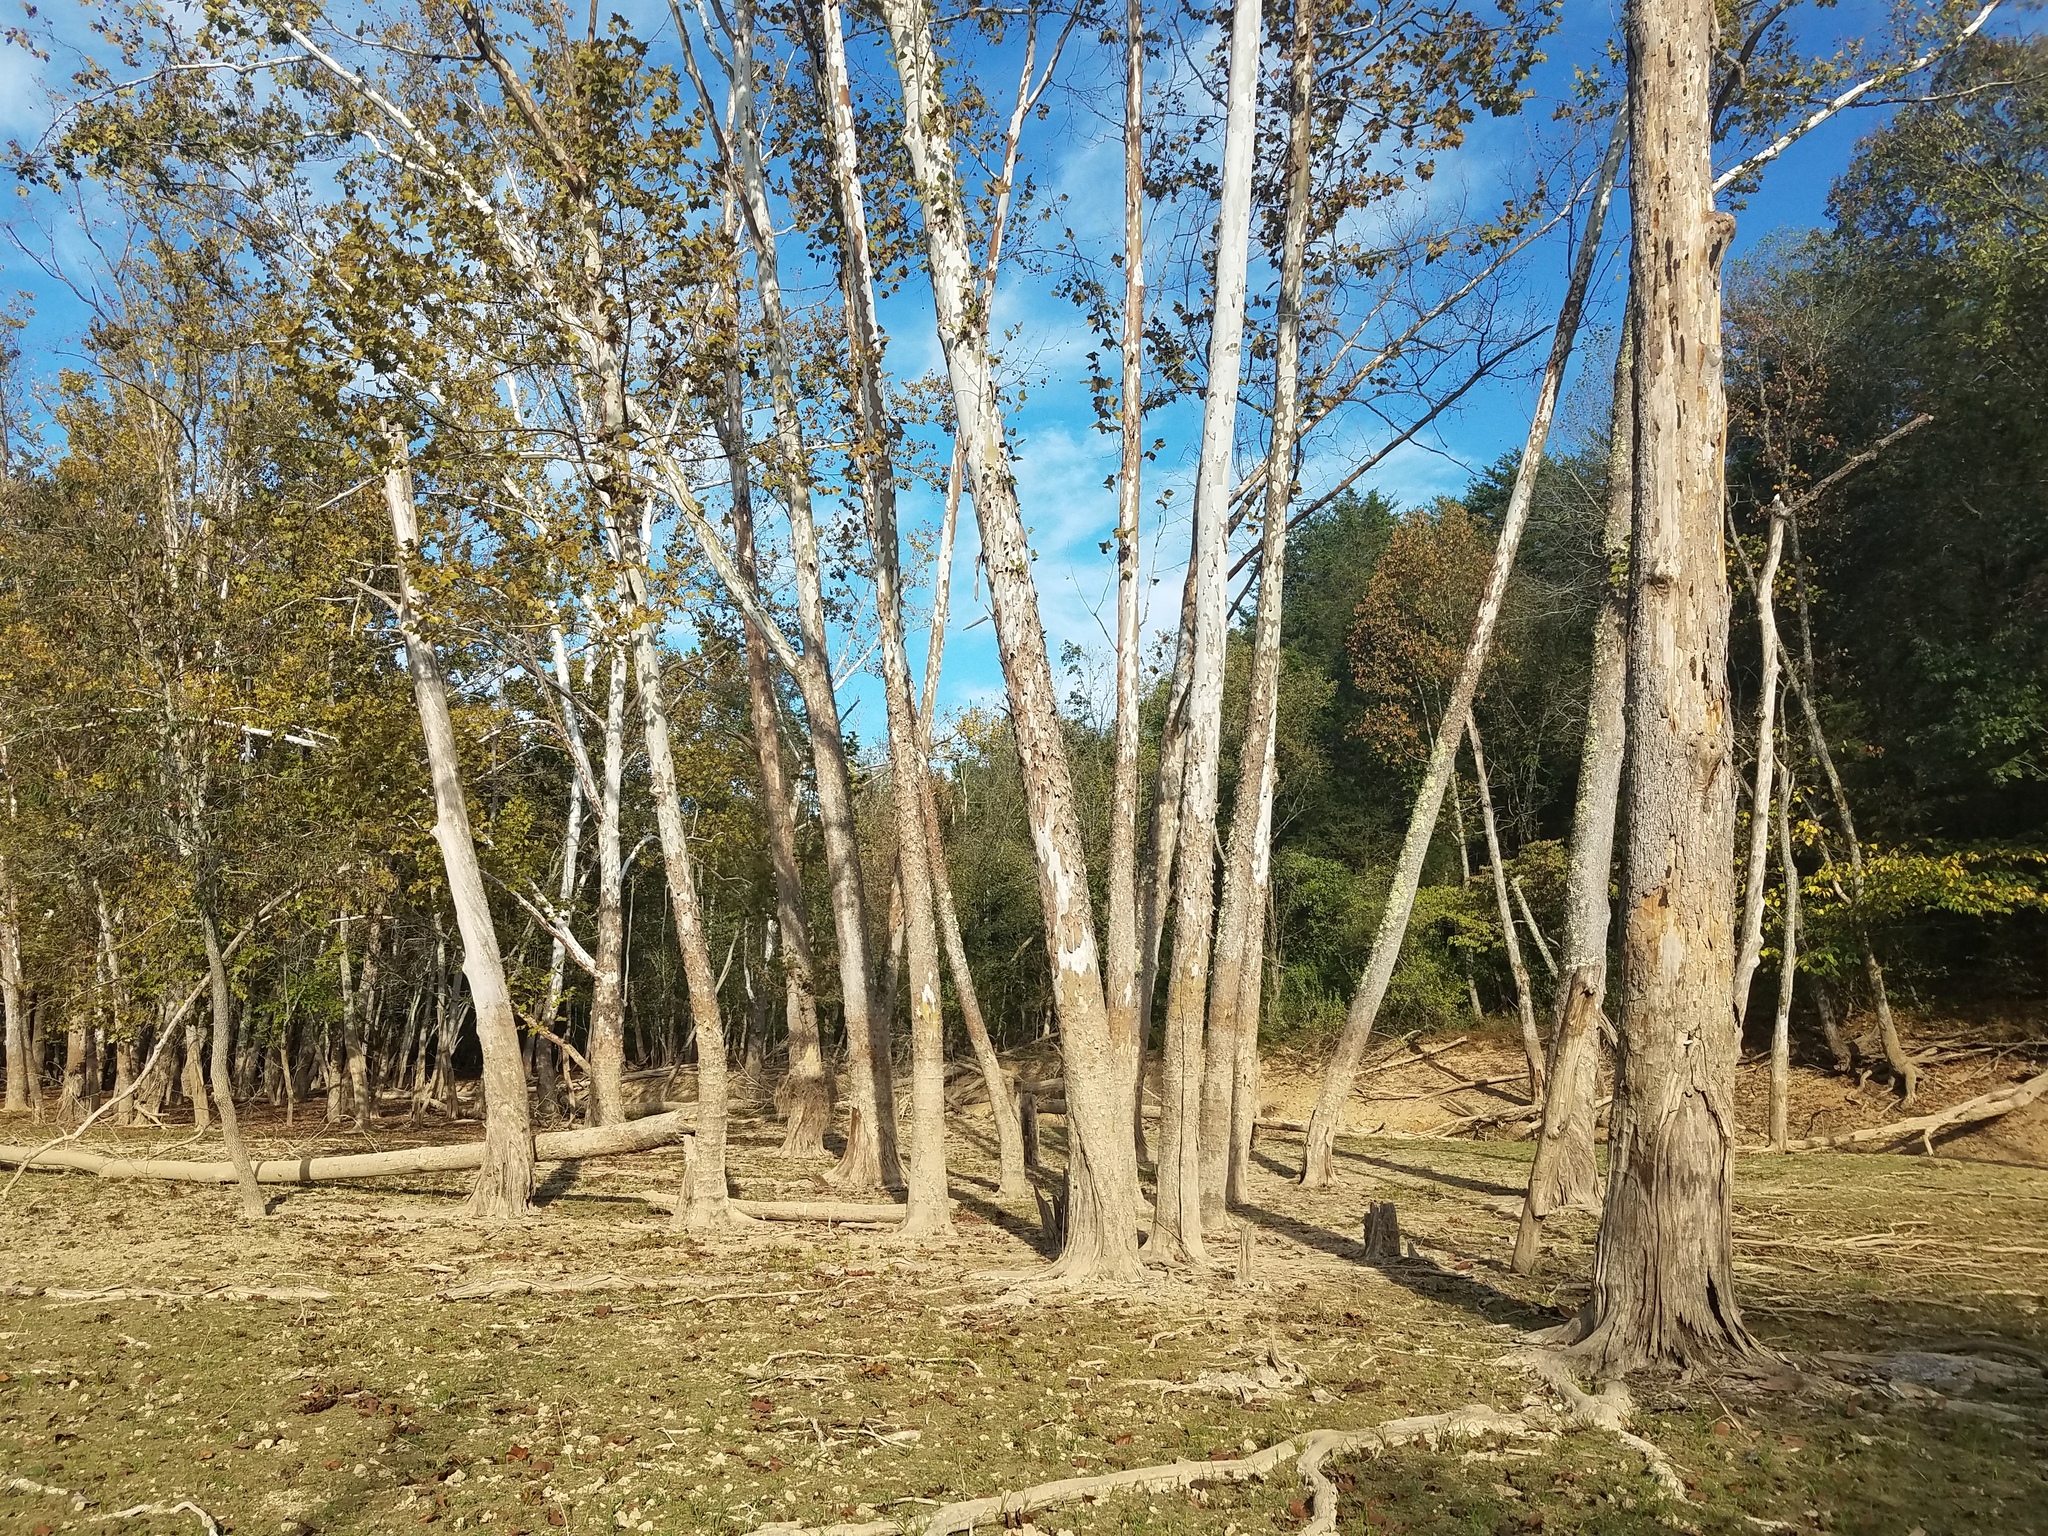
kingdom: Plantae
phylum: Tracheophyta
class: Magnoliopsida
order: Proteales
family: Platanaceae
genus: Platanus
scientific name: Platanus occidentalis
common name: American sycamore
